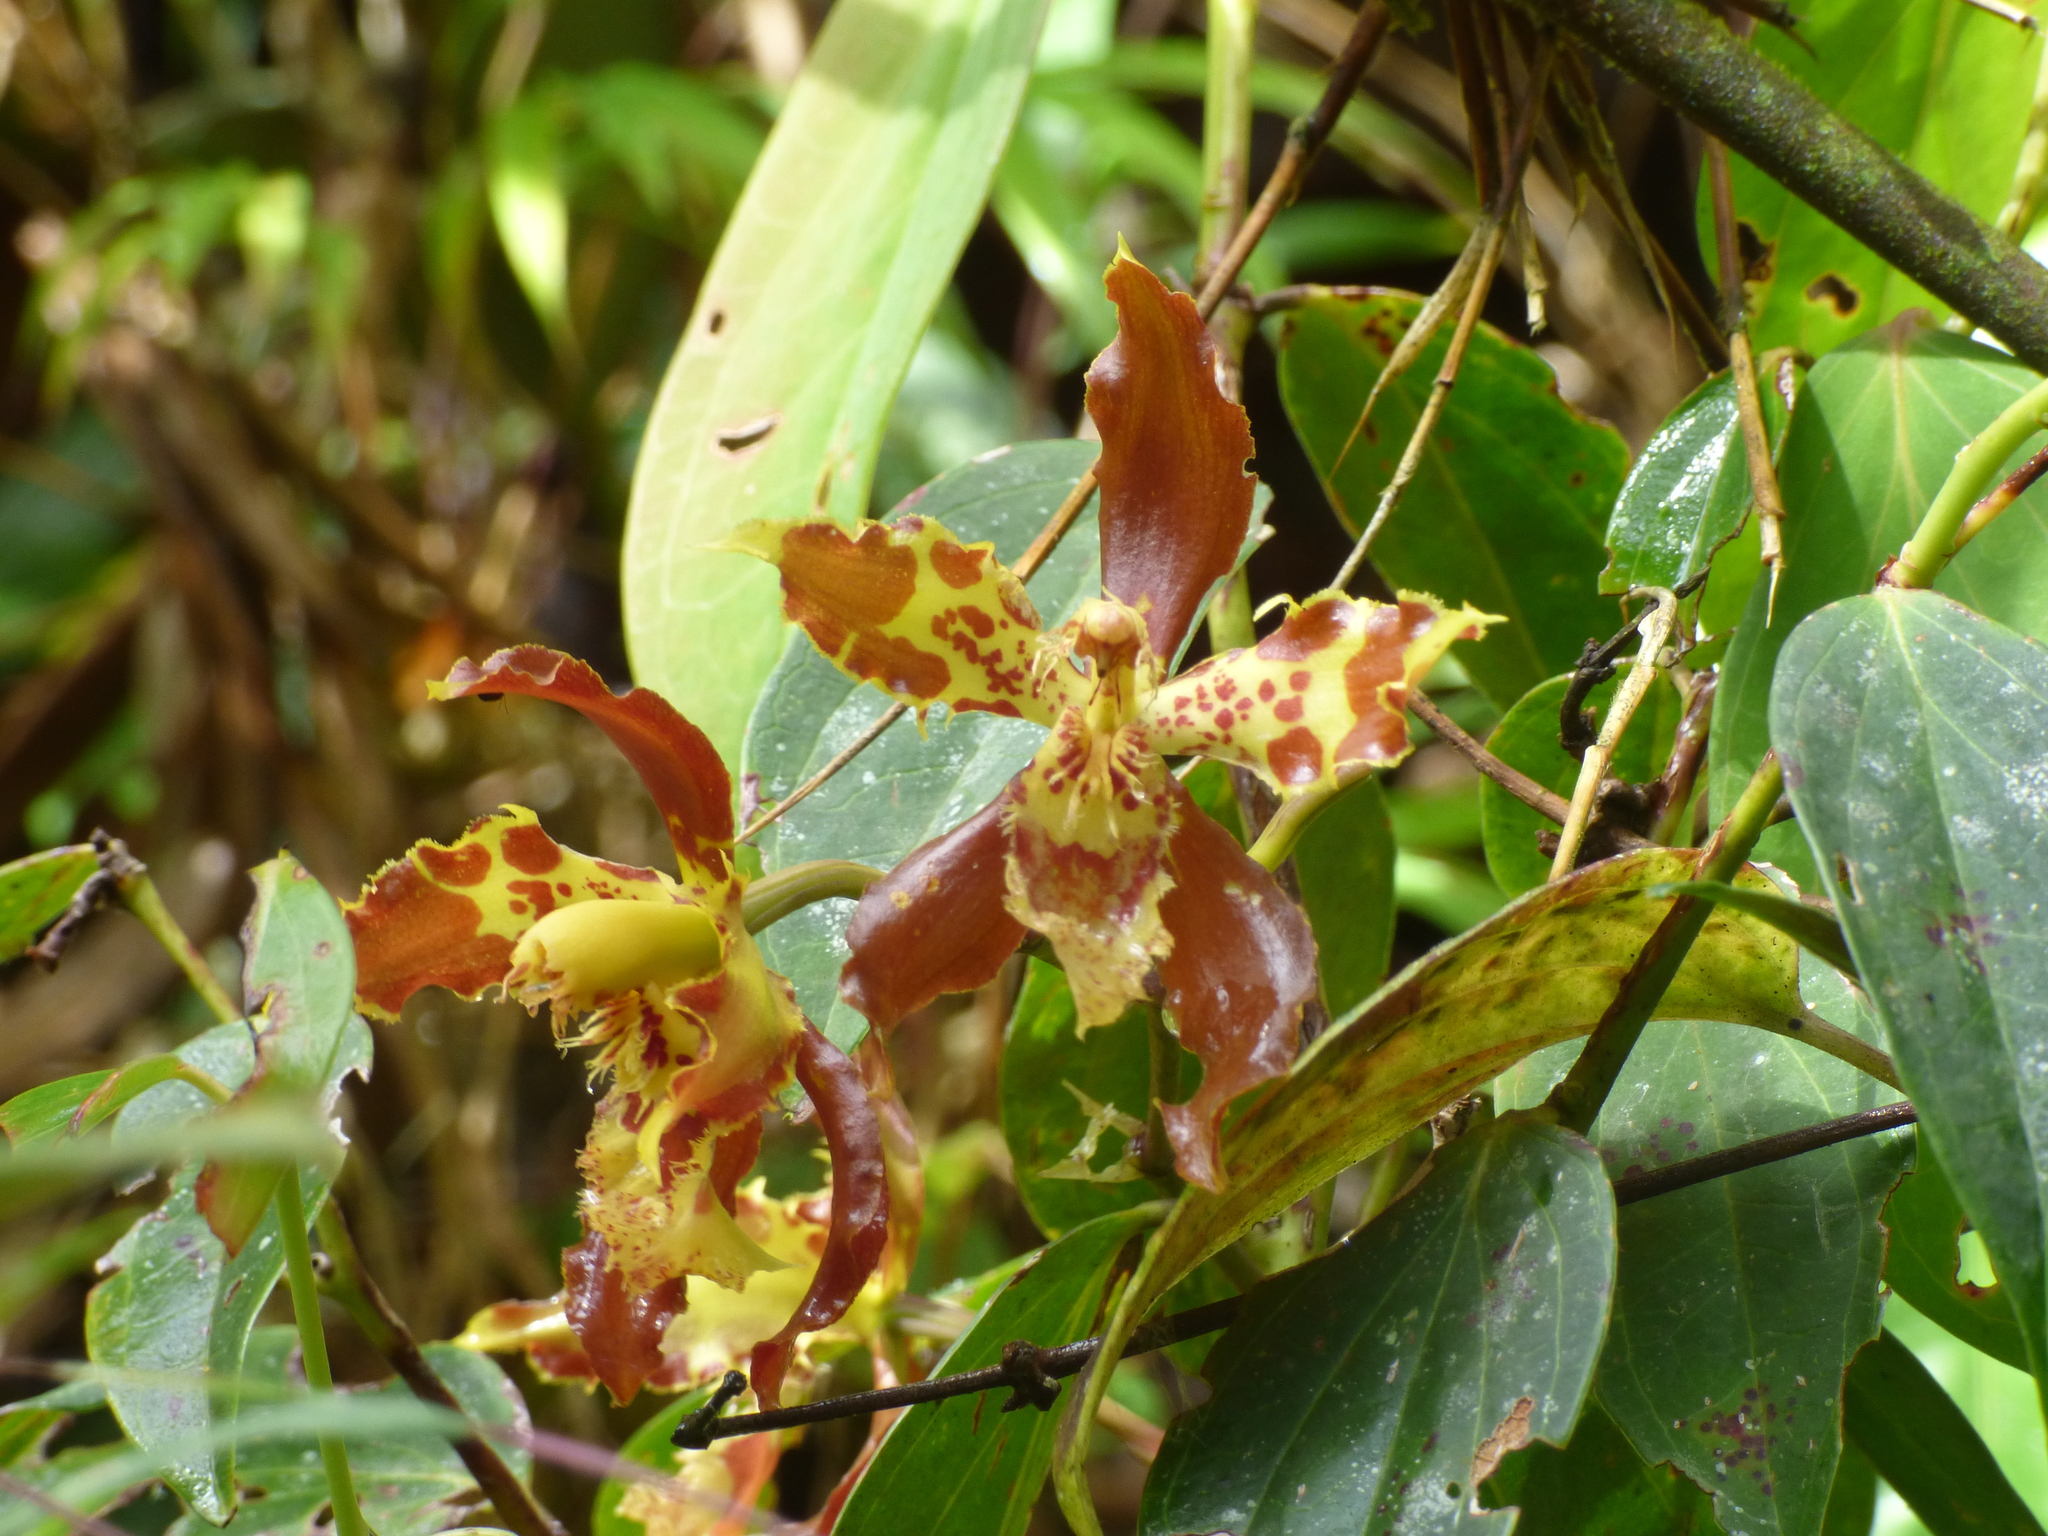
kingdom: Plantae
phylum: Tracheophyta
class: Liliopsida
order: Asparagales
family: Orchidaceae
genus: Oncidium
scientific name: Oncidium luteopurpureum
